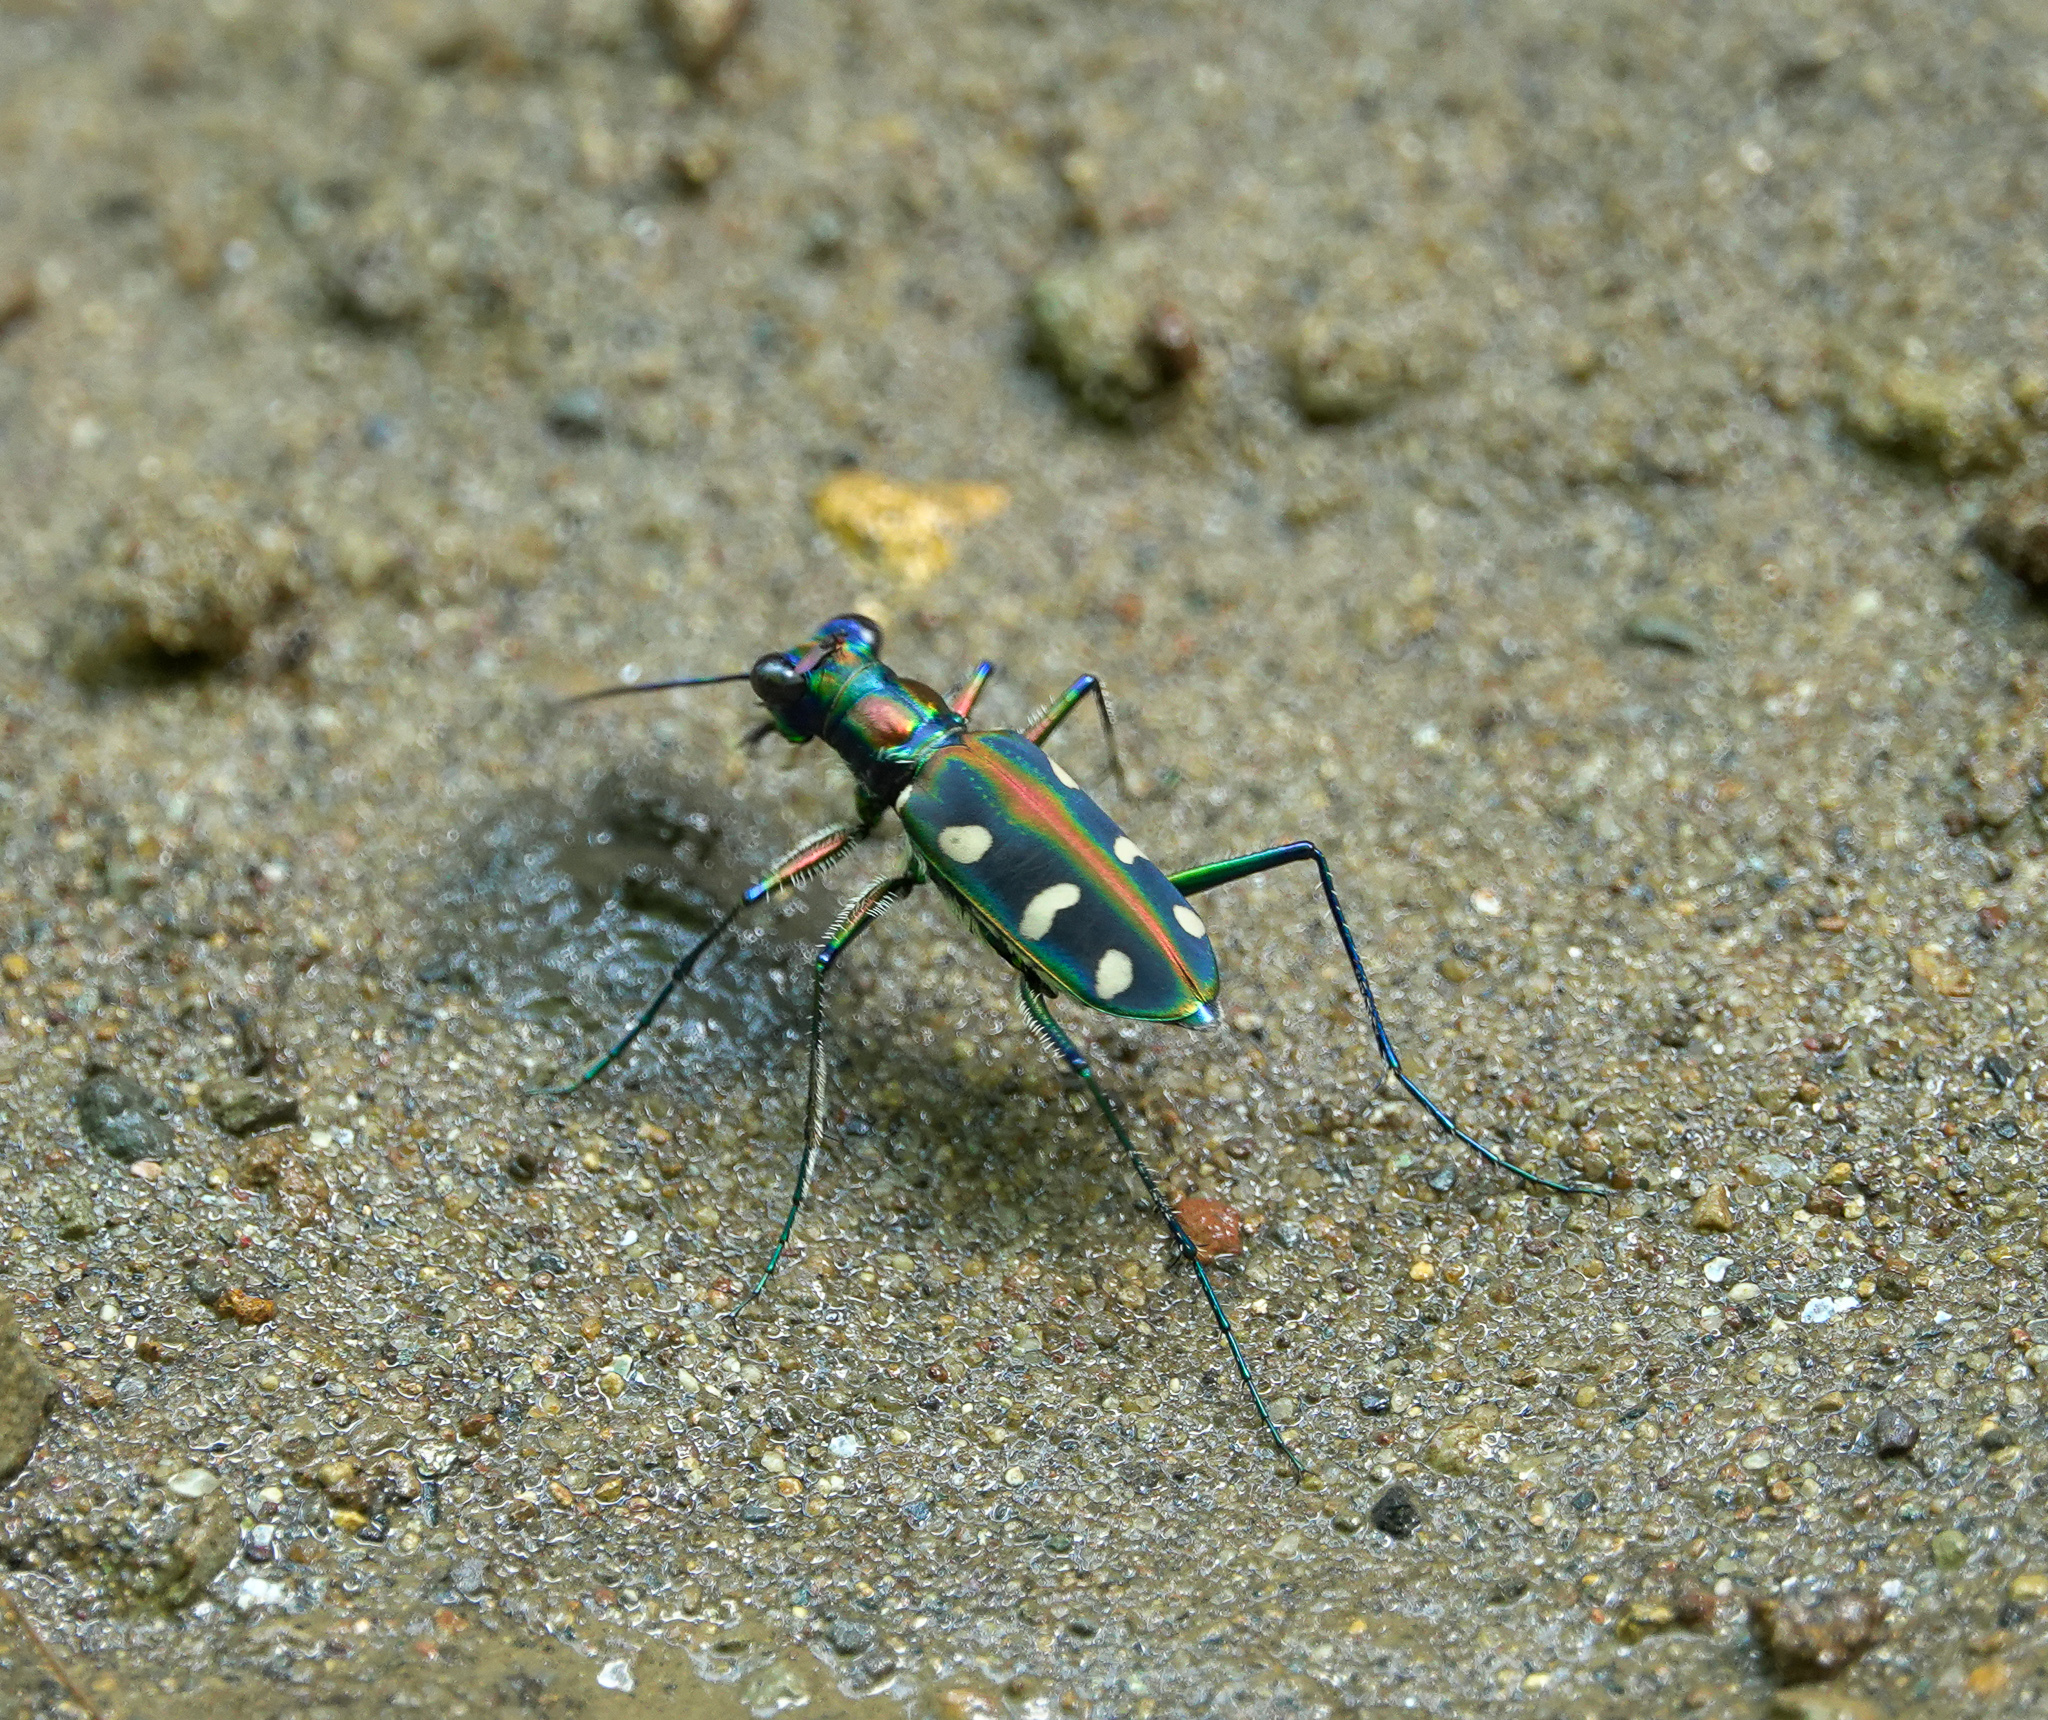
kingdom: Animalia
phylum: Arthropoda
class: Insecta
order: Coleoptera
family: Carabidae
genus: Cicindela
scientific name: Cicindela virgula
